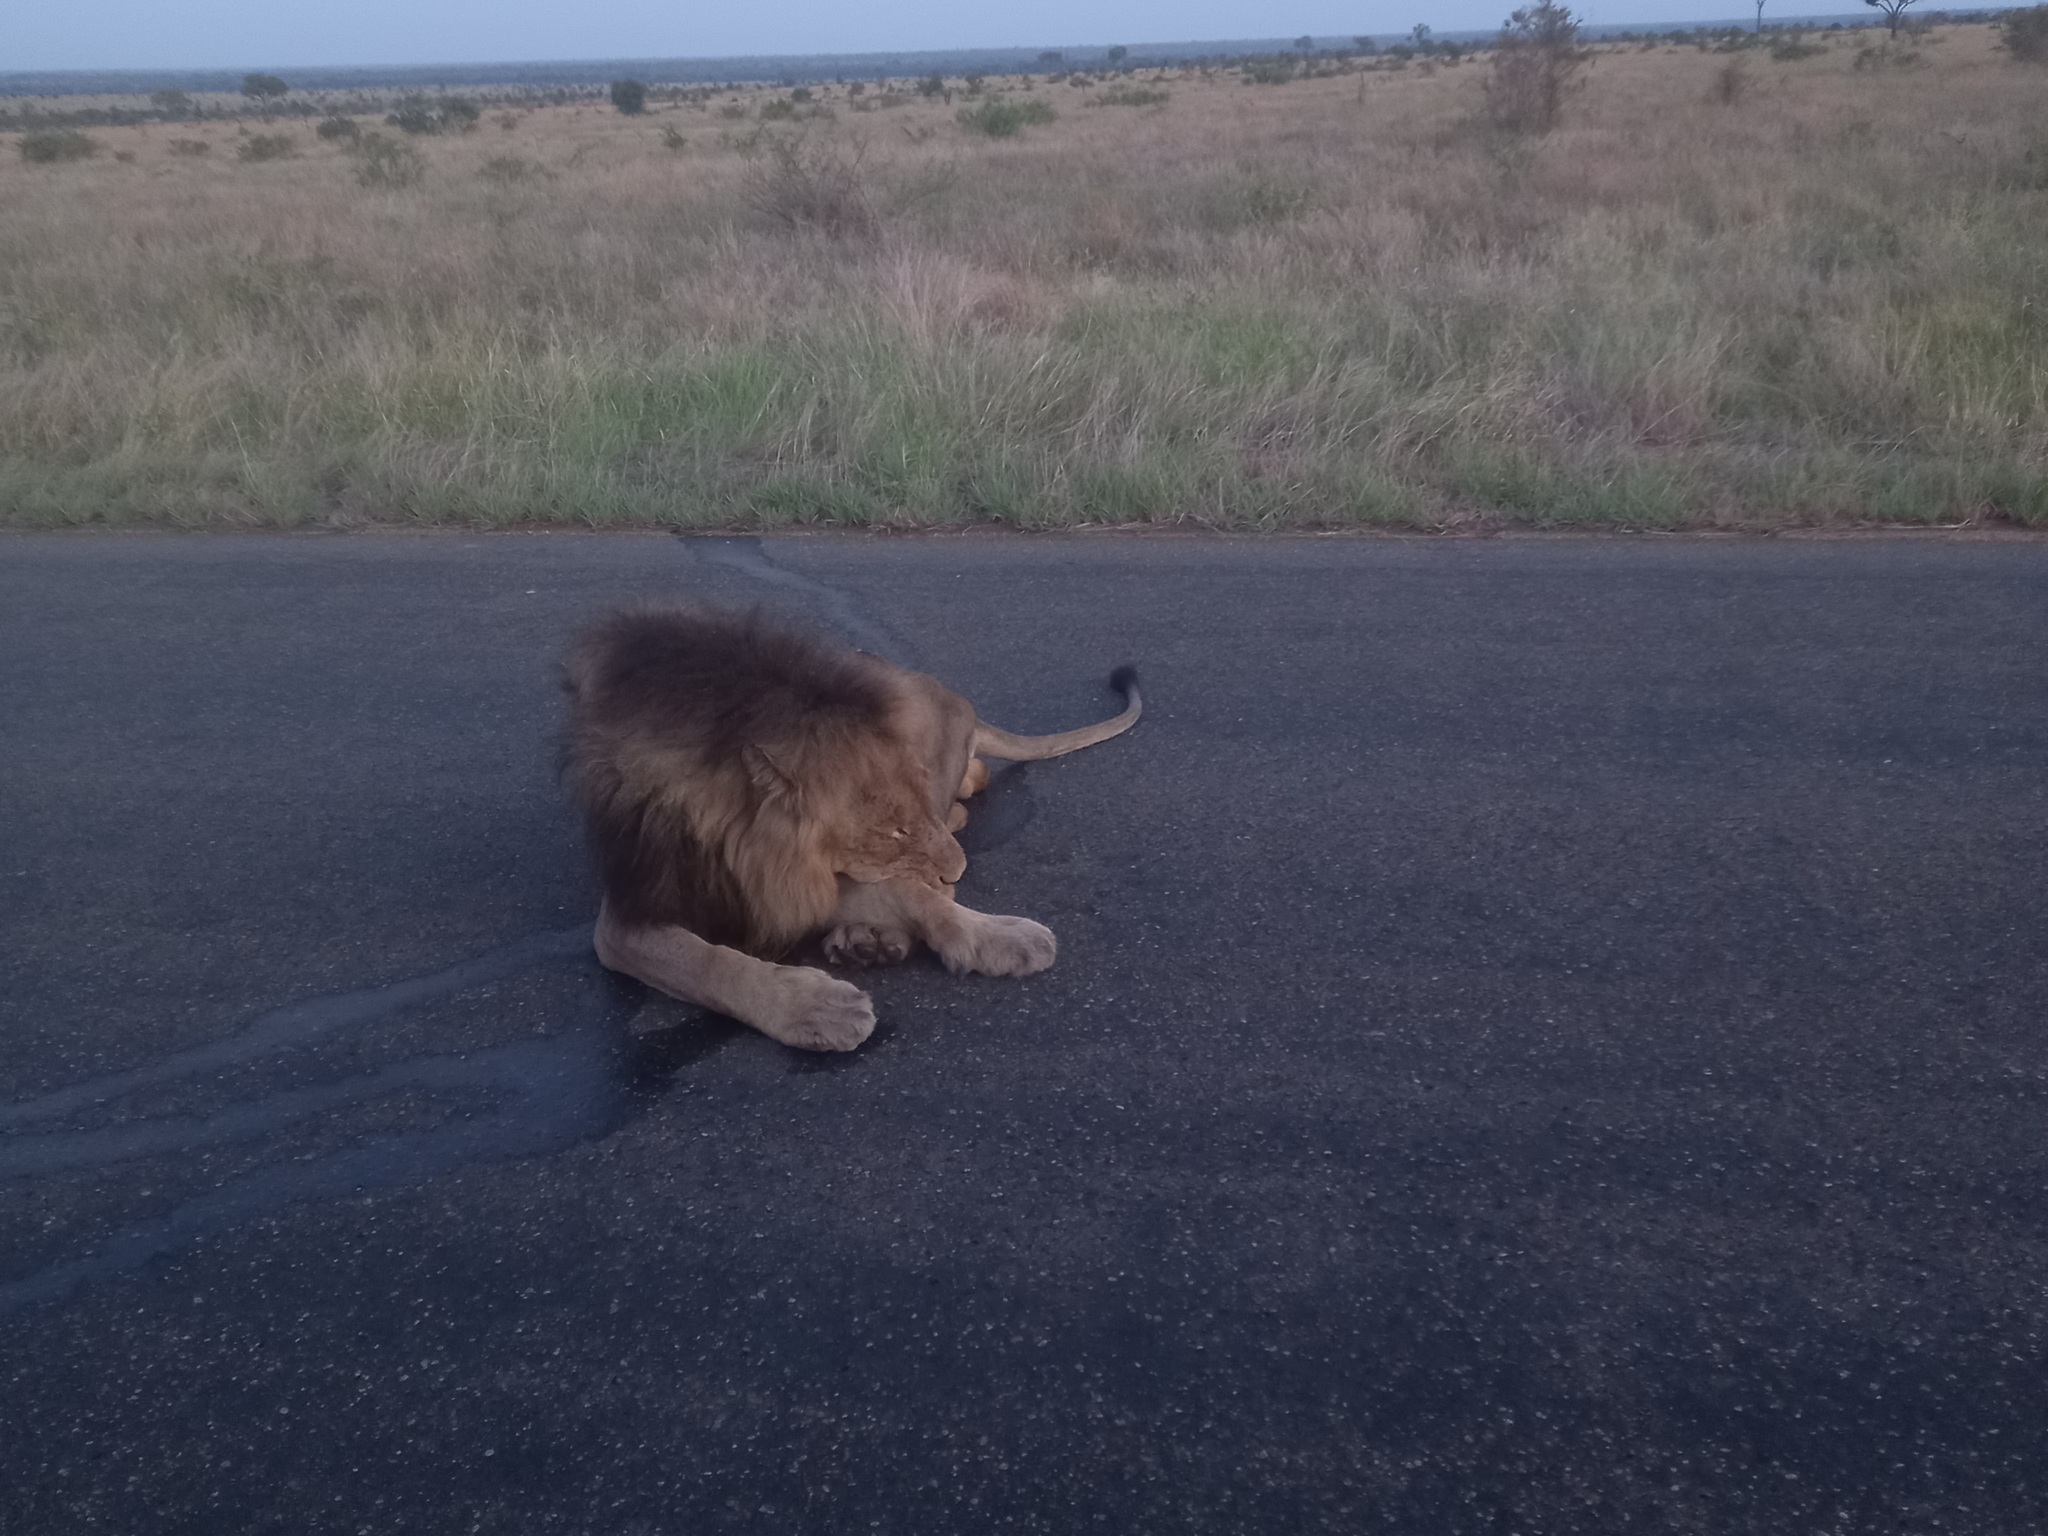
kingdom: Animalia
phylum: Chordata
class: Mammalia
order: Carnivora
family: Felidae
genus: Panthera
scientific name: Panthera leo
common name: Lion
